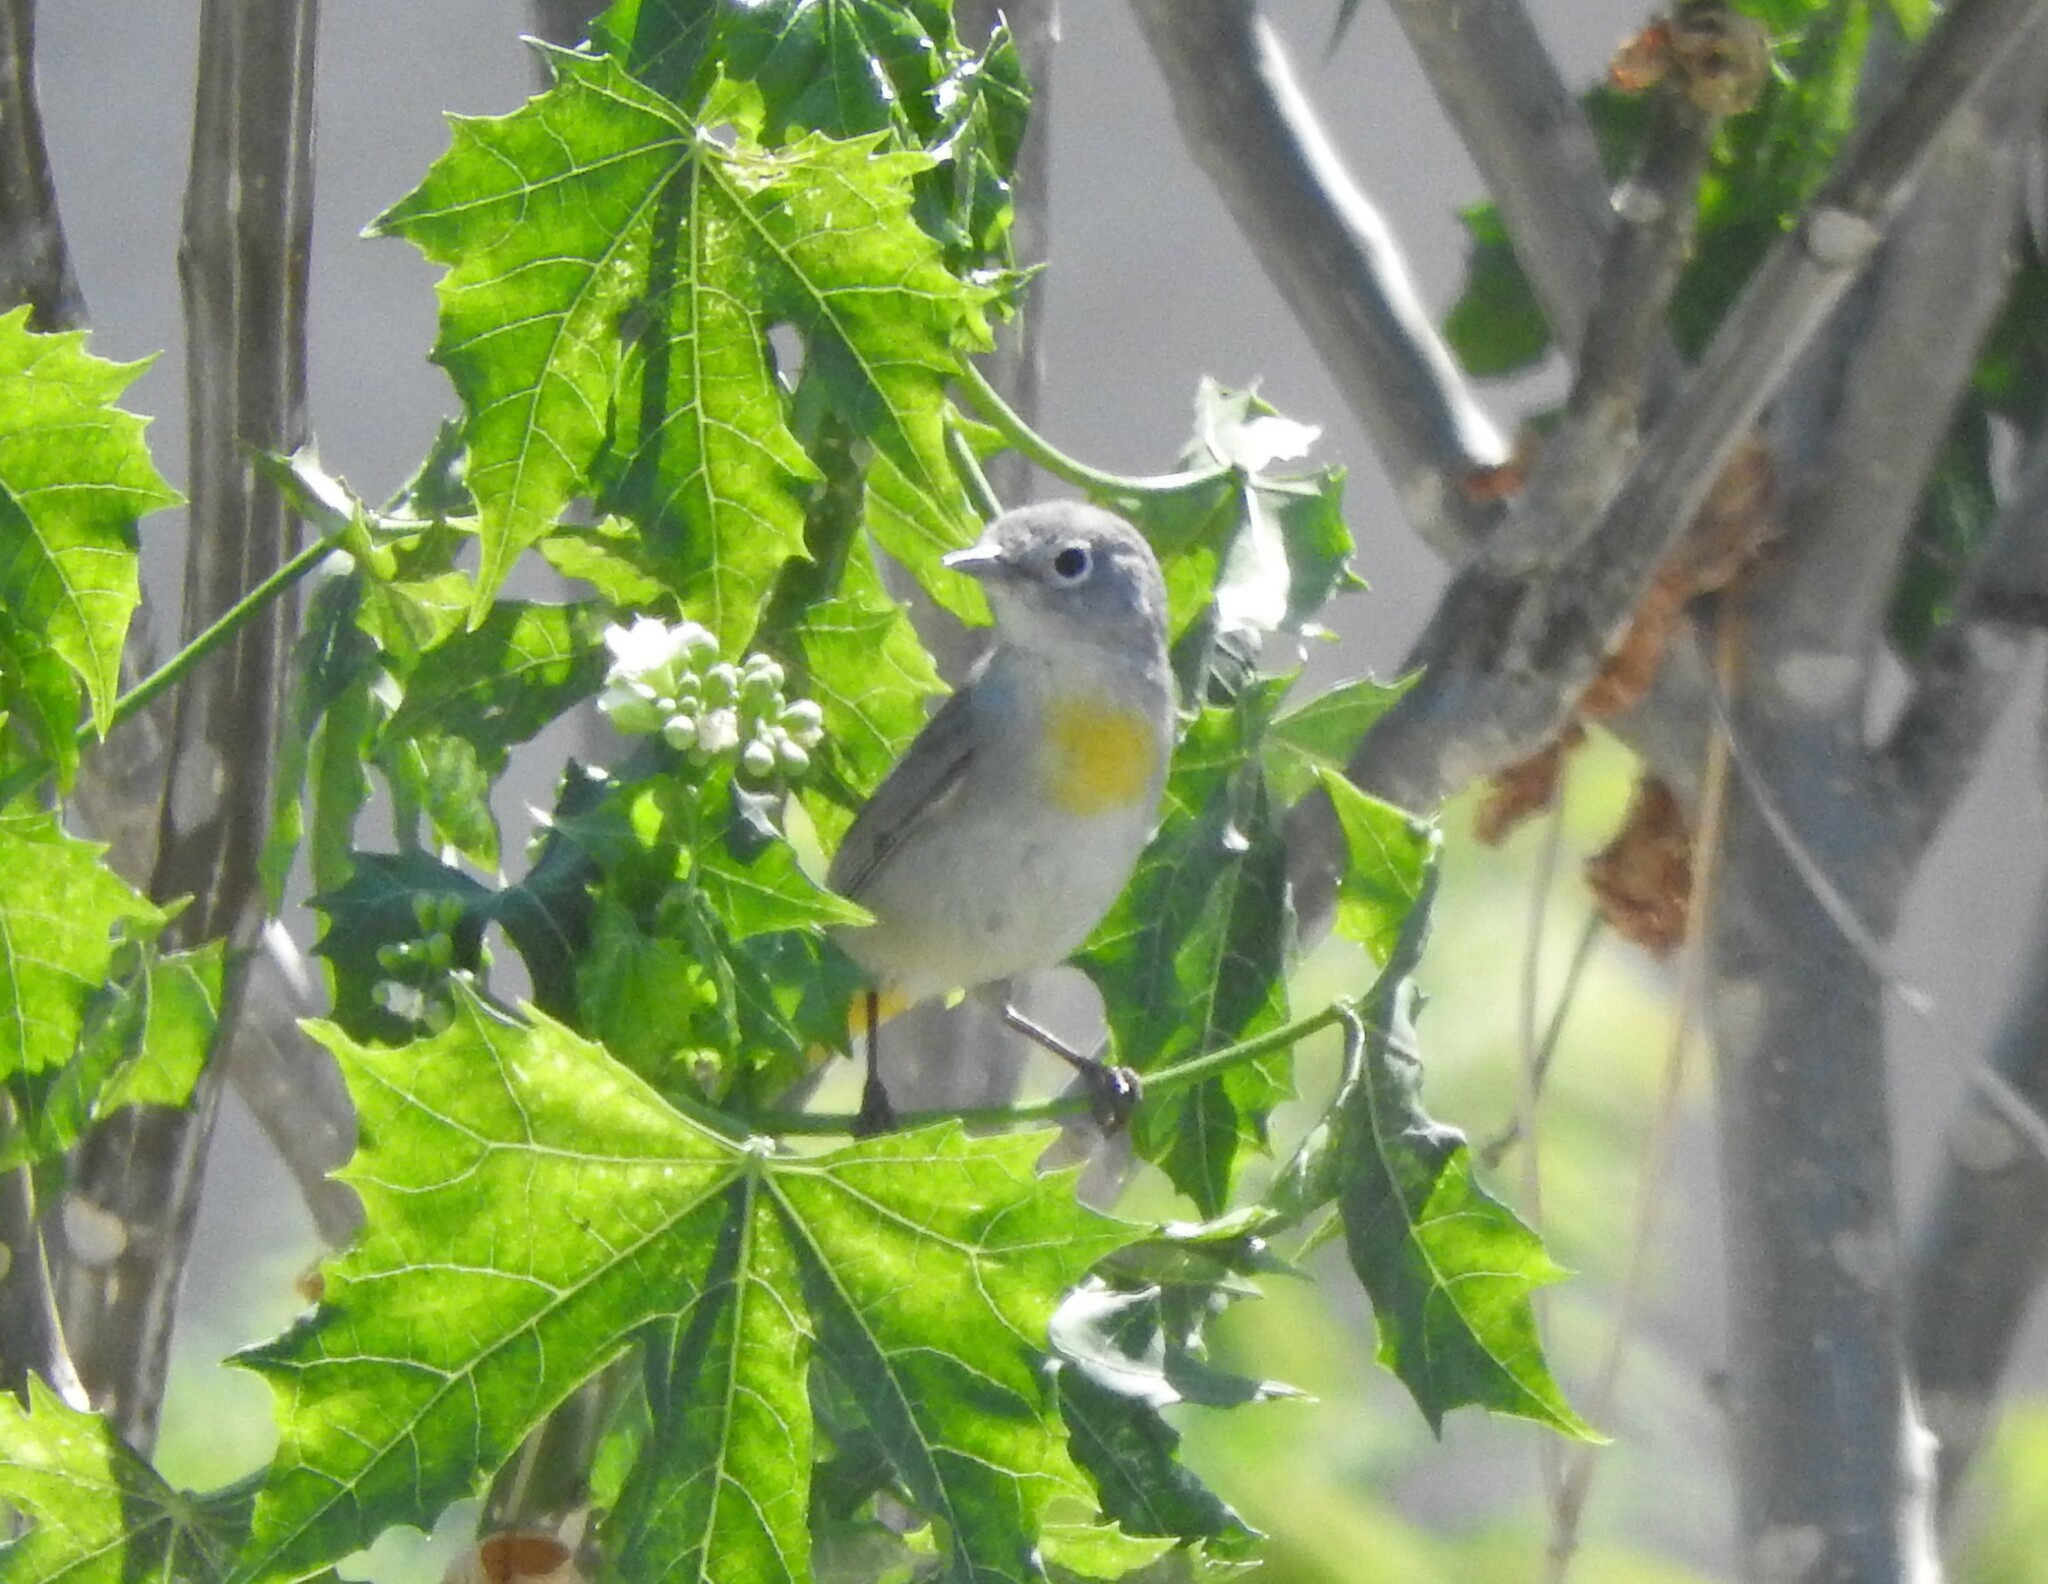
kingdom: Animalia
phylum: Chordata
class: Aves
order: Passeriformes
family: Parulidae
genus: Leiothlypis
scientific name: Leiothlypis virginiae
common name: Virginia's warbler
